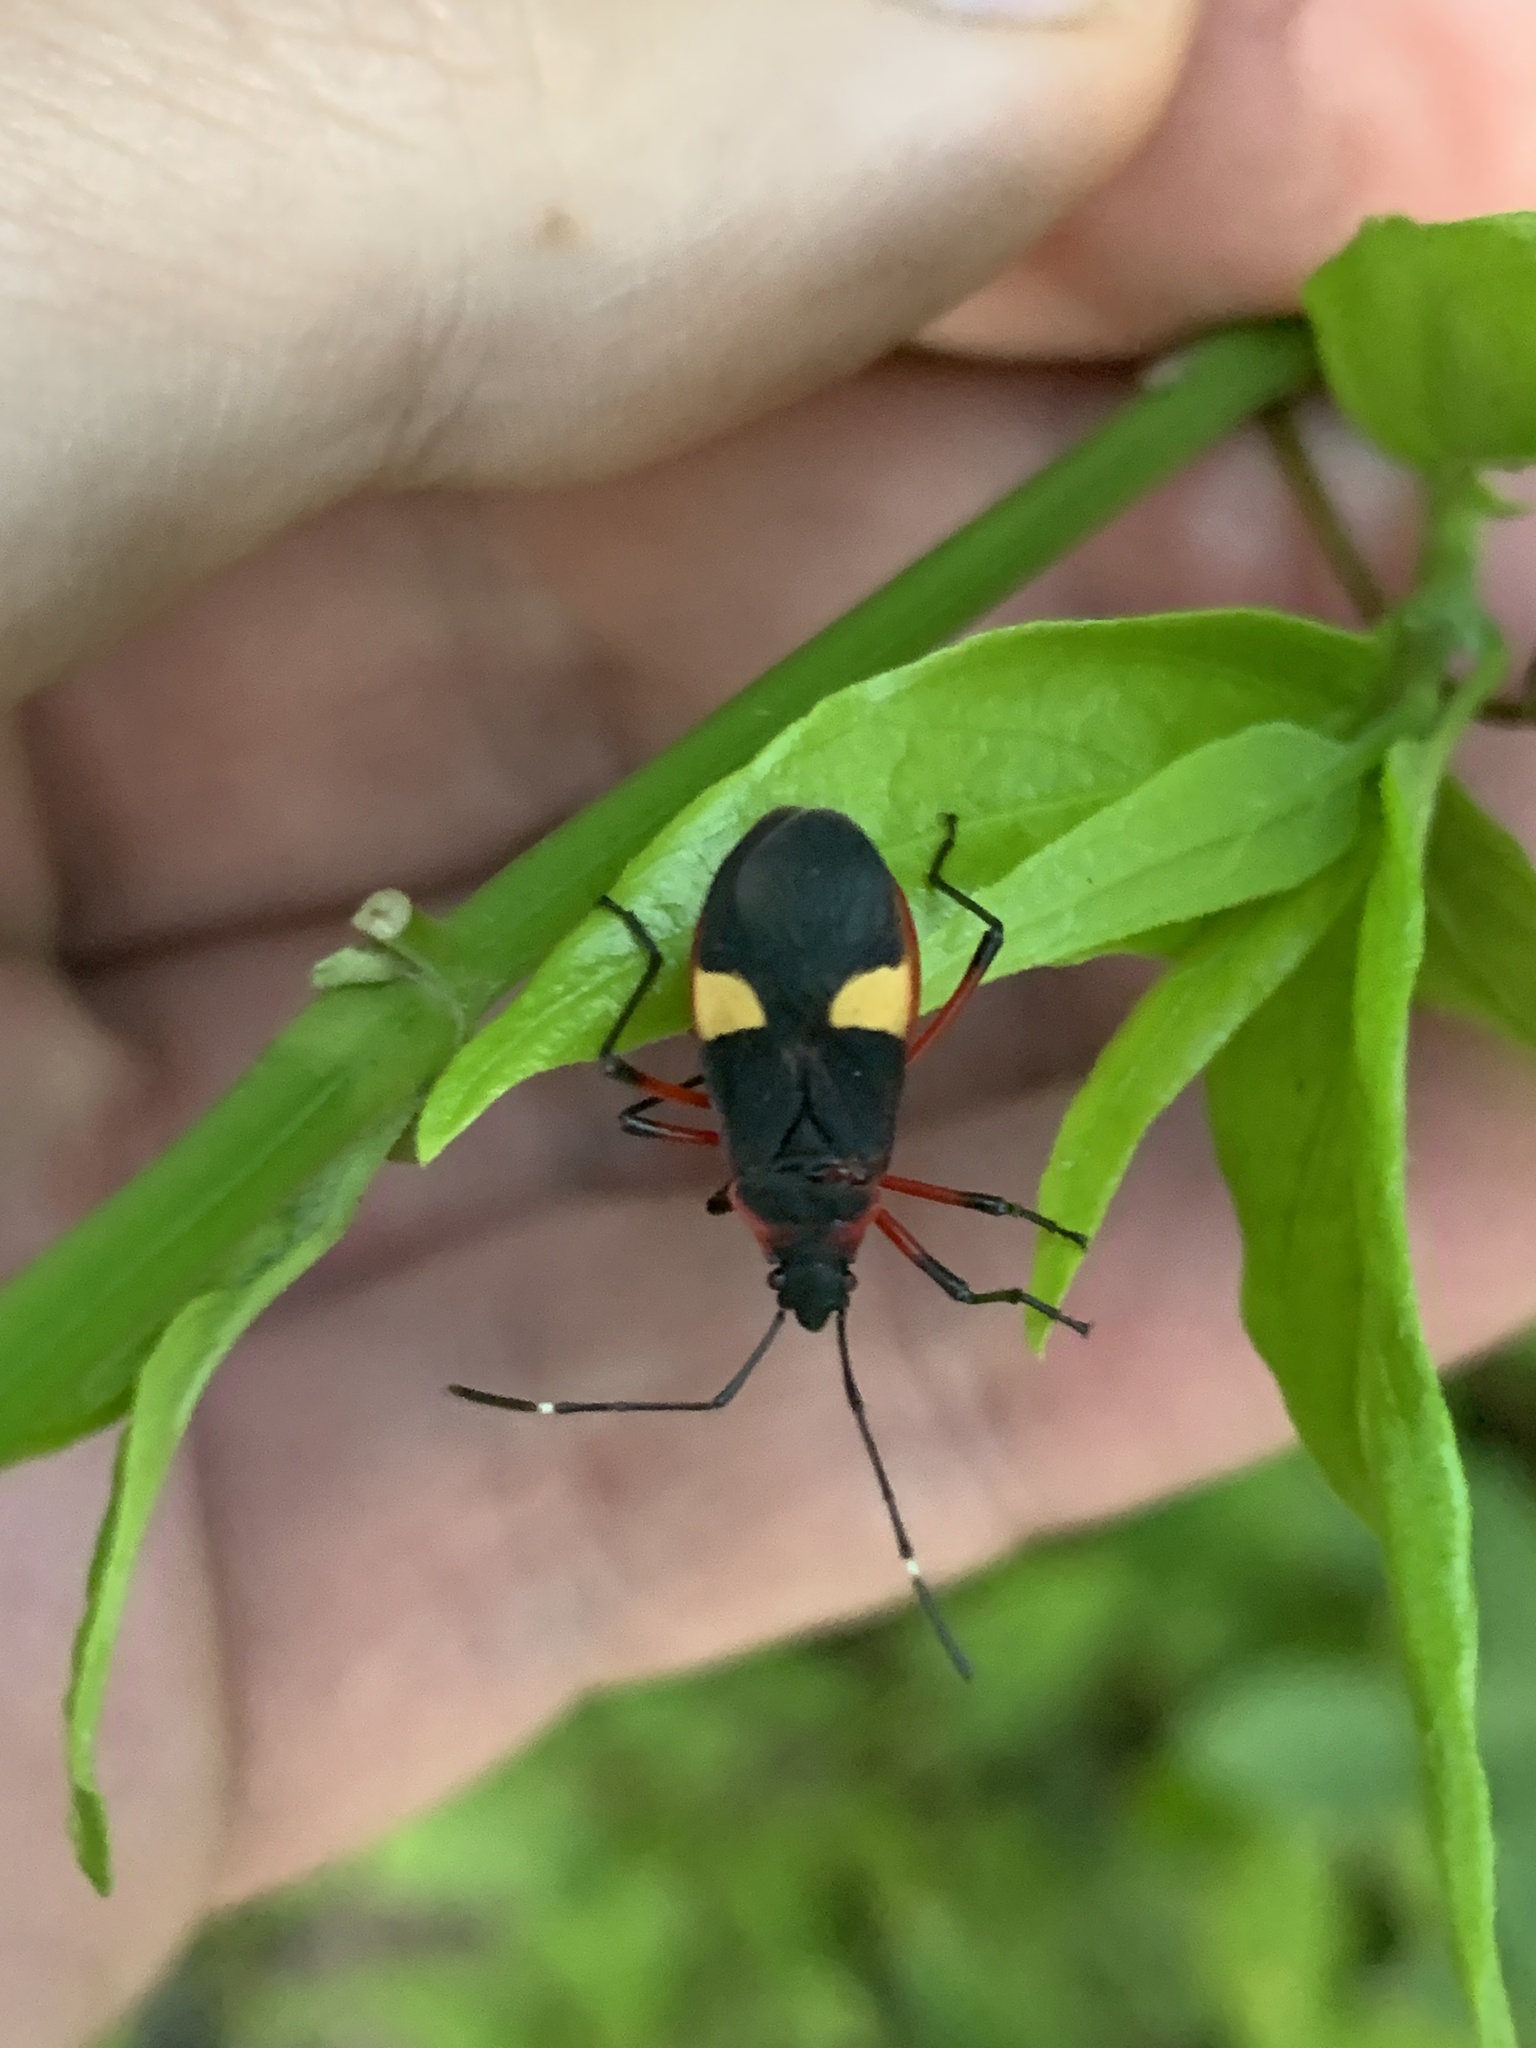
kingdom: Animalia
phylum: Arthropoda
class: Insecta
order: Hemiptera
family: Pyrrhocoridae
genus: Dysdercus
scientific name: Dysdercus albofasciatus
